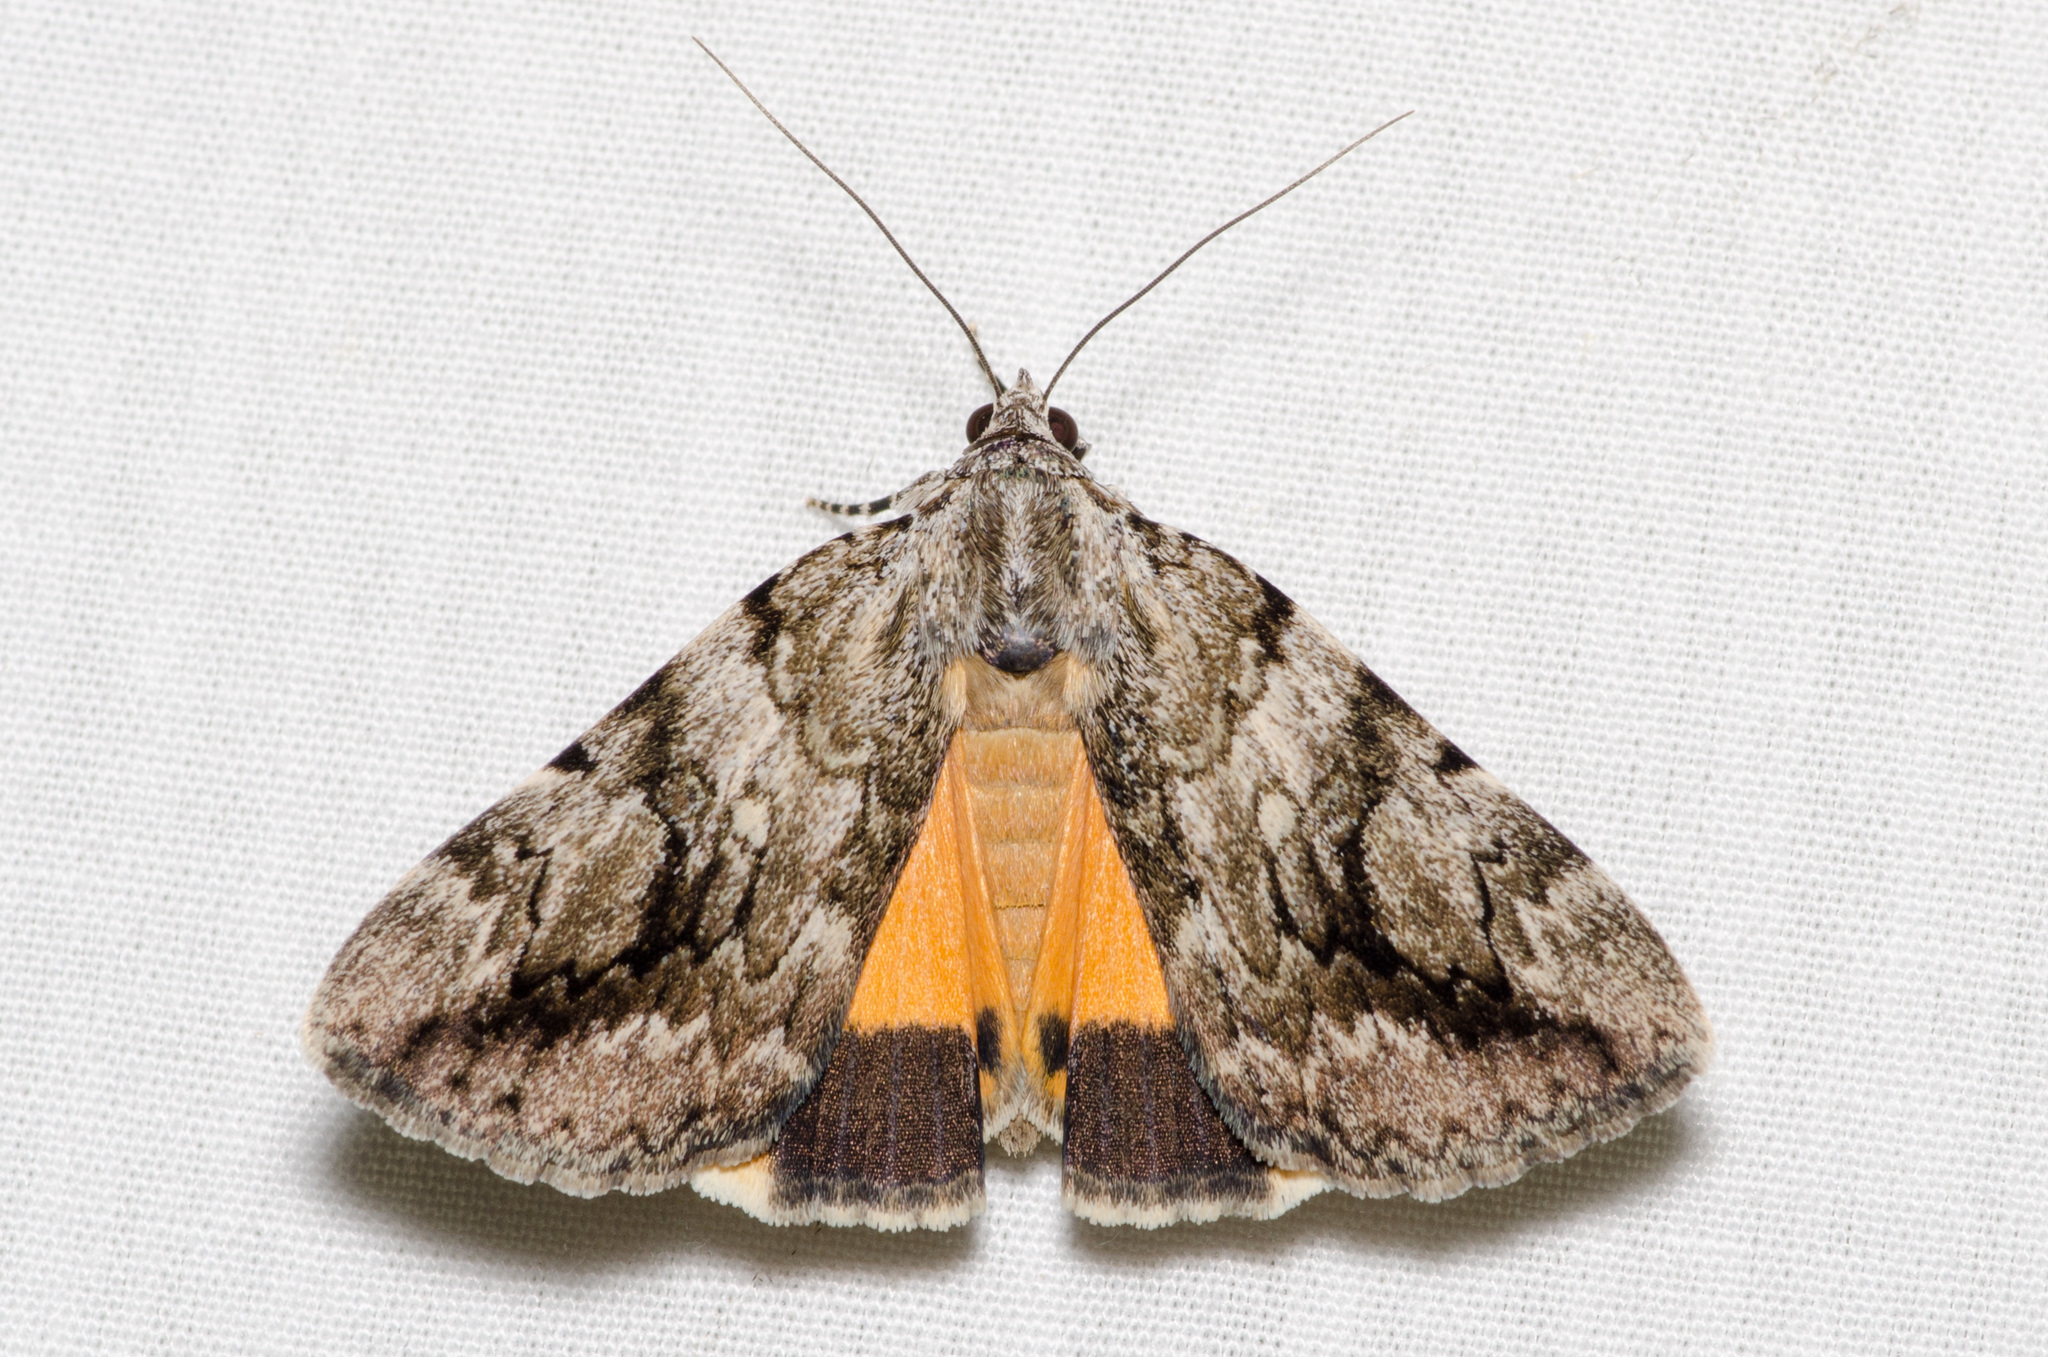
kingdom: Animalia
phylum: Arthropoda
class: Insecta
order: Lepidoptera
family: Erebidae
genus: Catocala
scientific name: Catocala amica
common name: Girlfriend underwing
